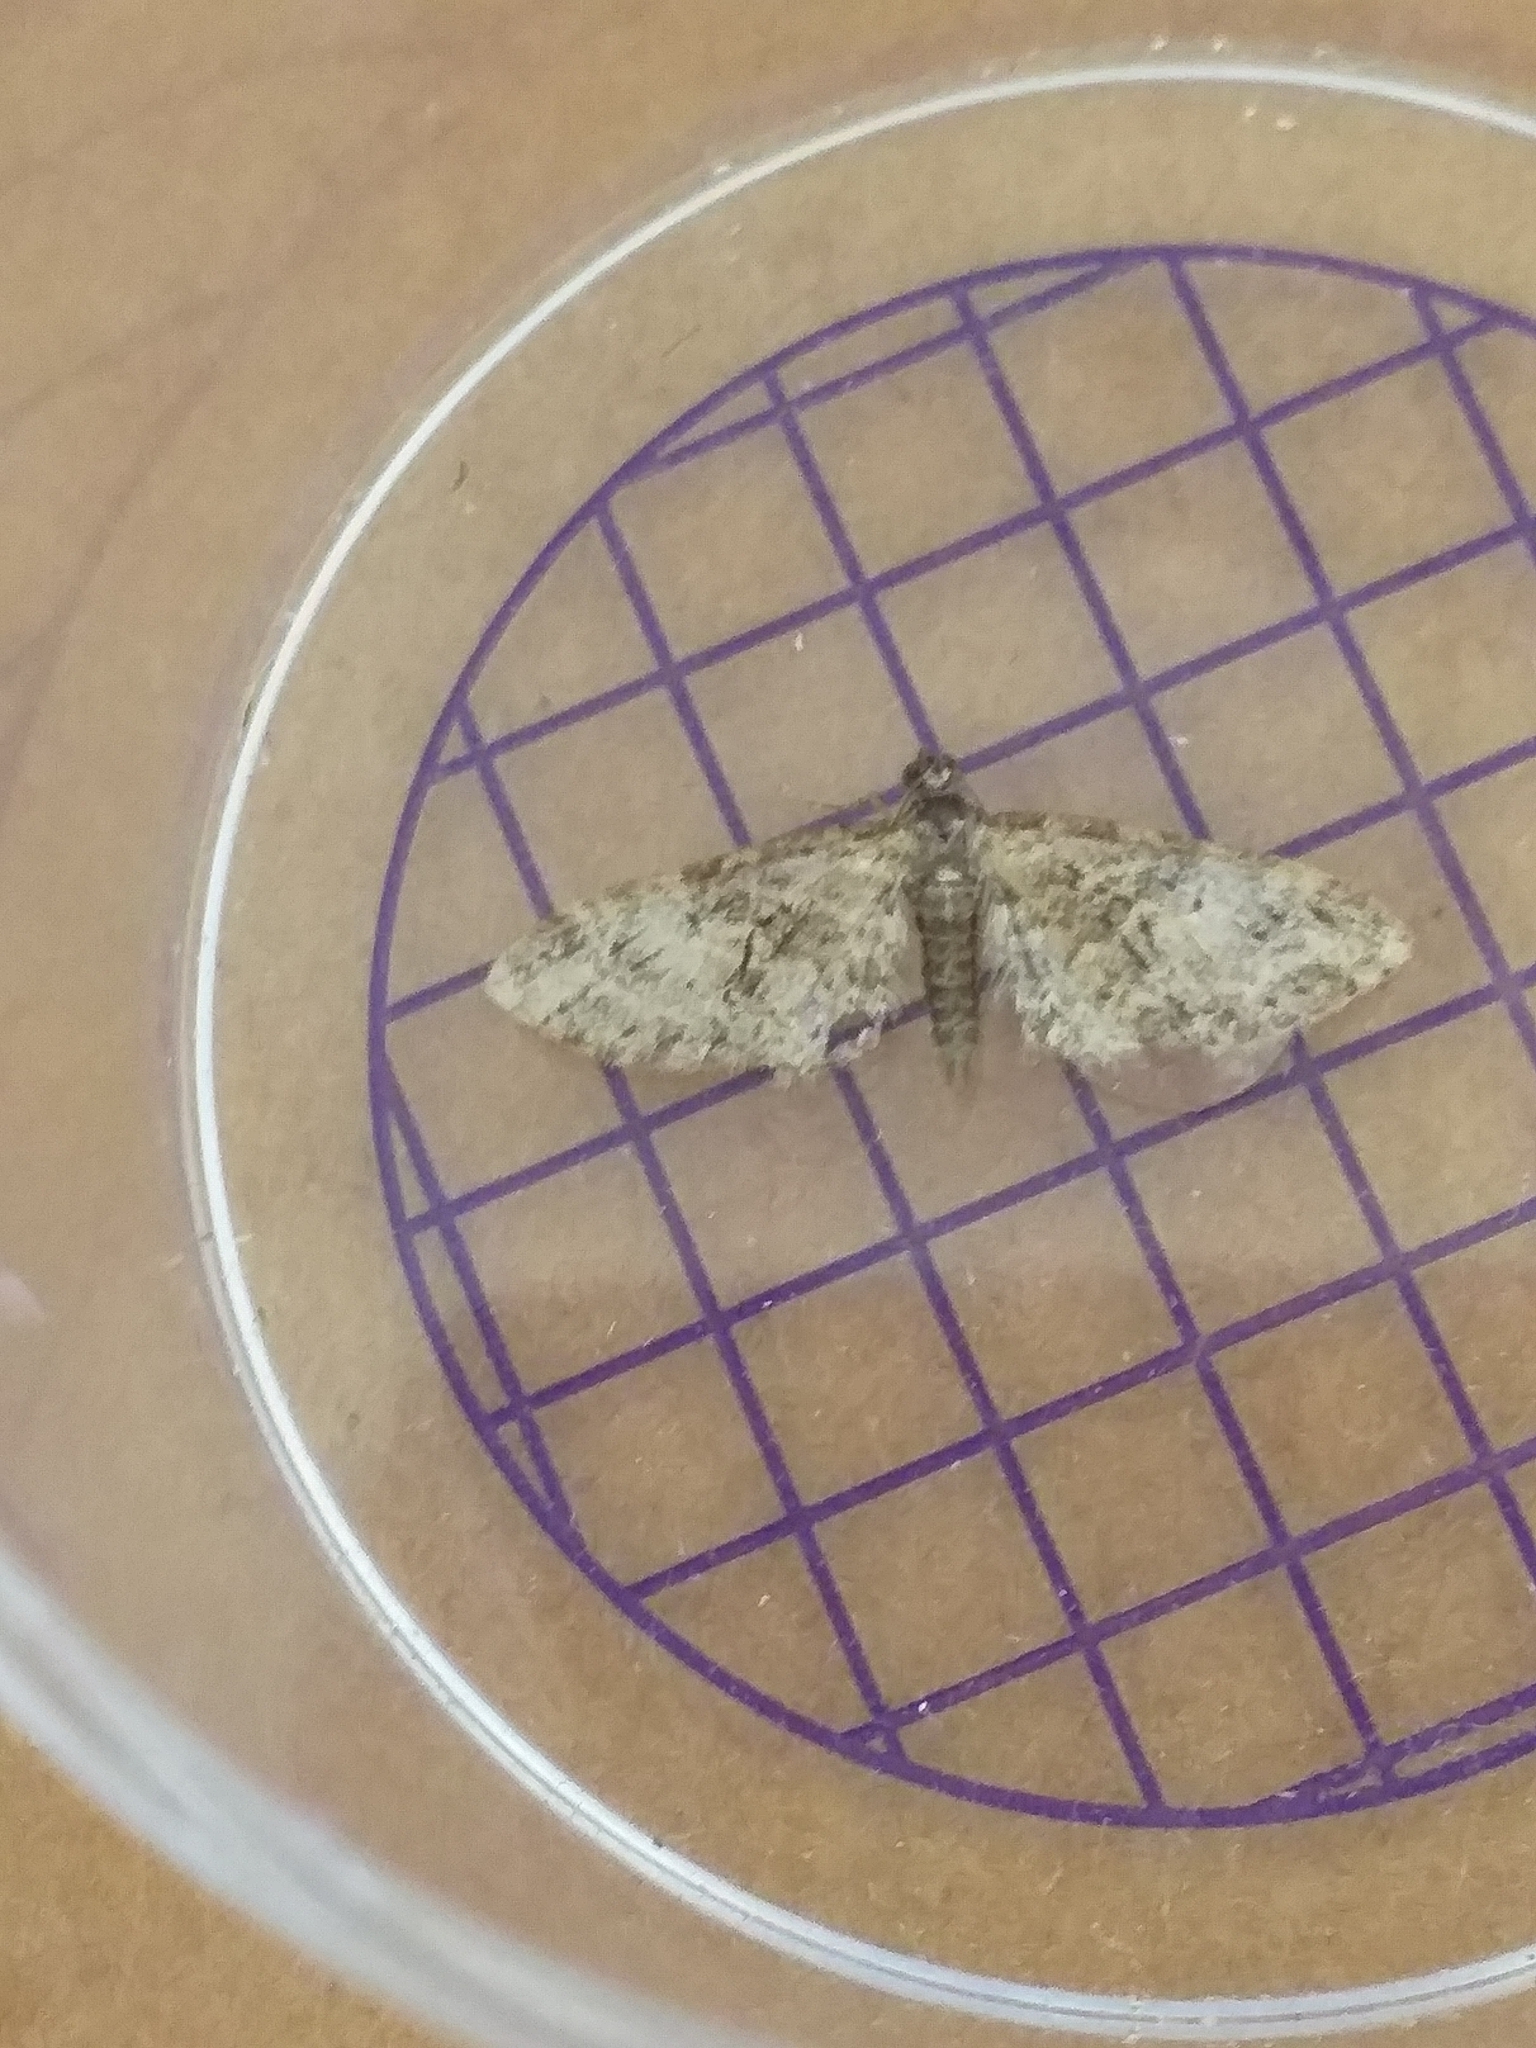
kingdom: Animalia
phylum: Arthropoda
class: Insecta
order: Lepidoptera
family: Geometridae
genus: Eupithecia
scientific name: Eupithecia abbreviata
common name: Brindled pug
